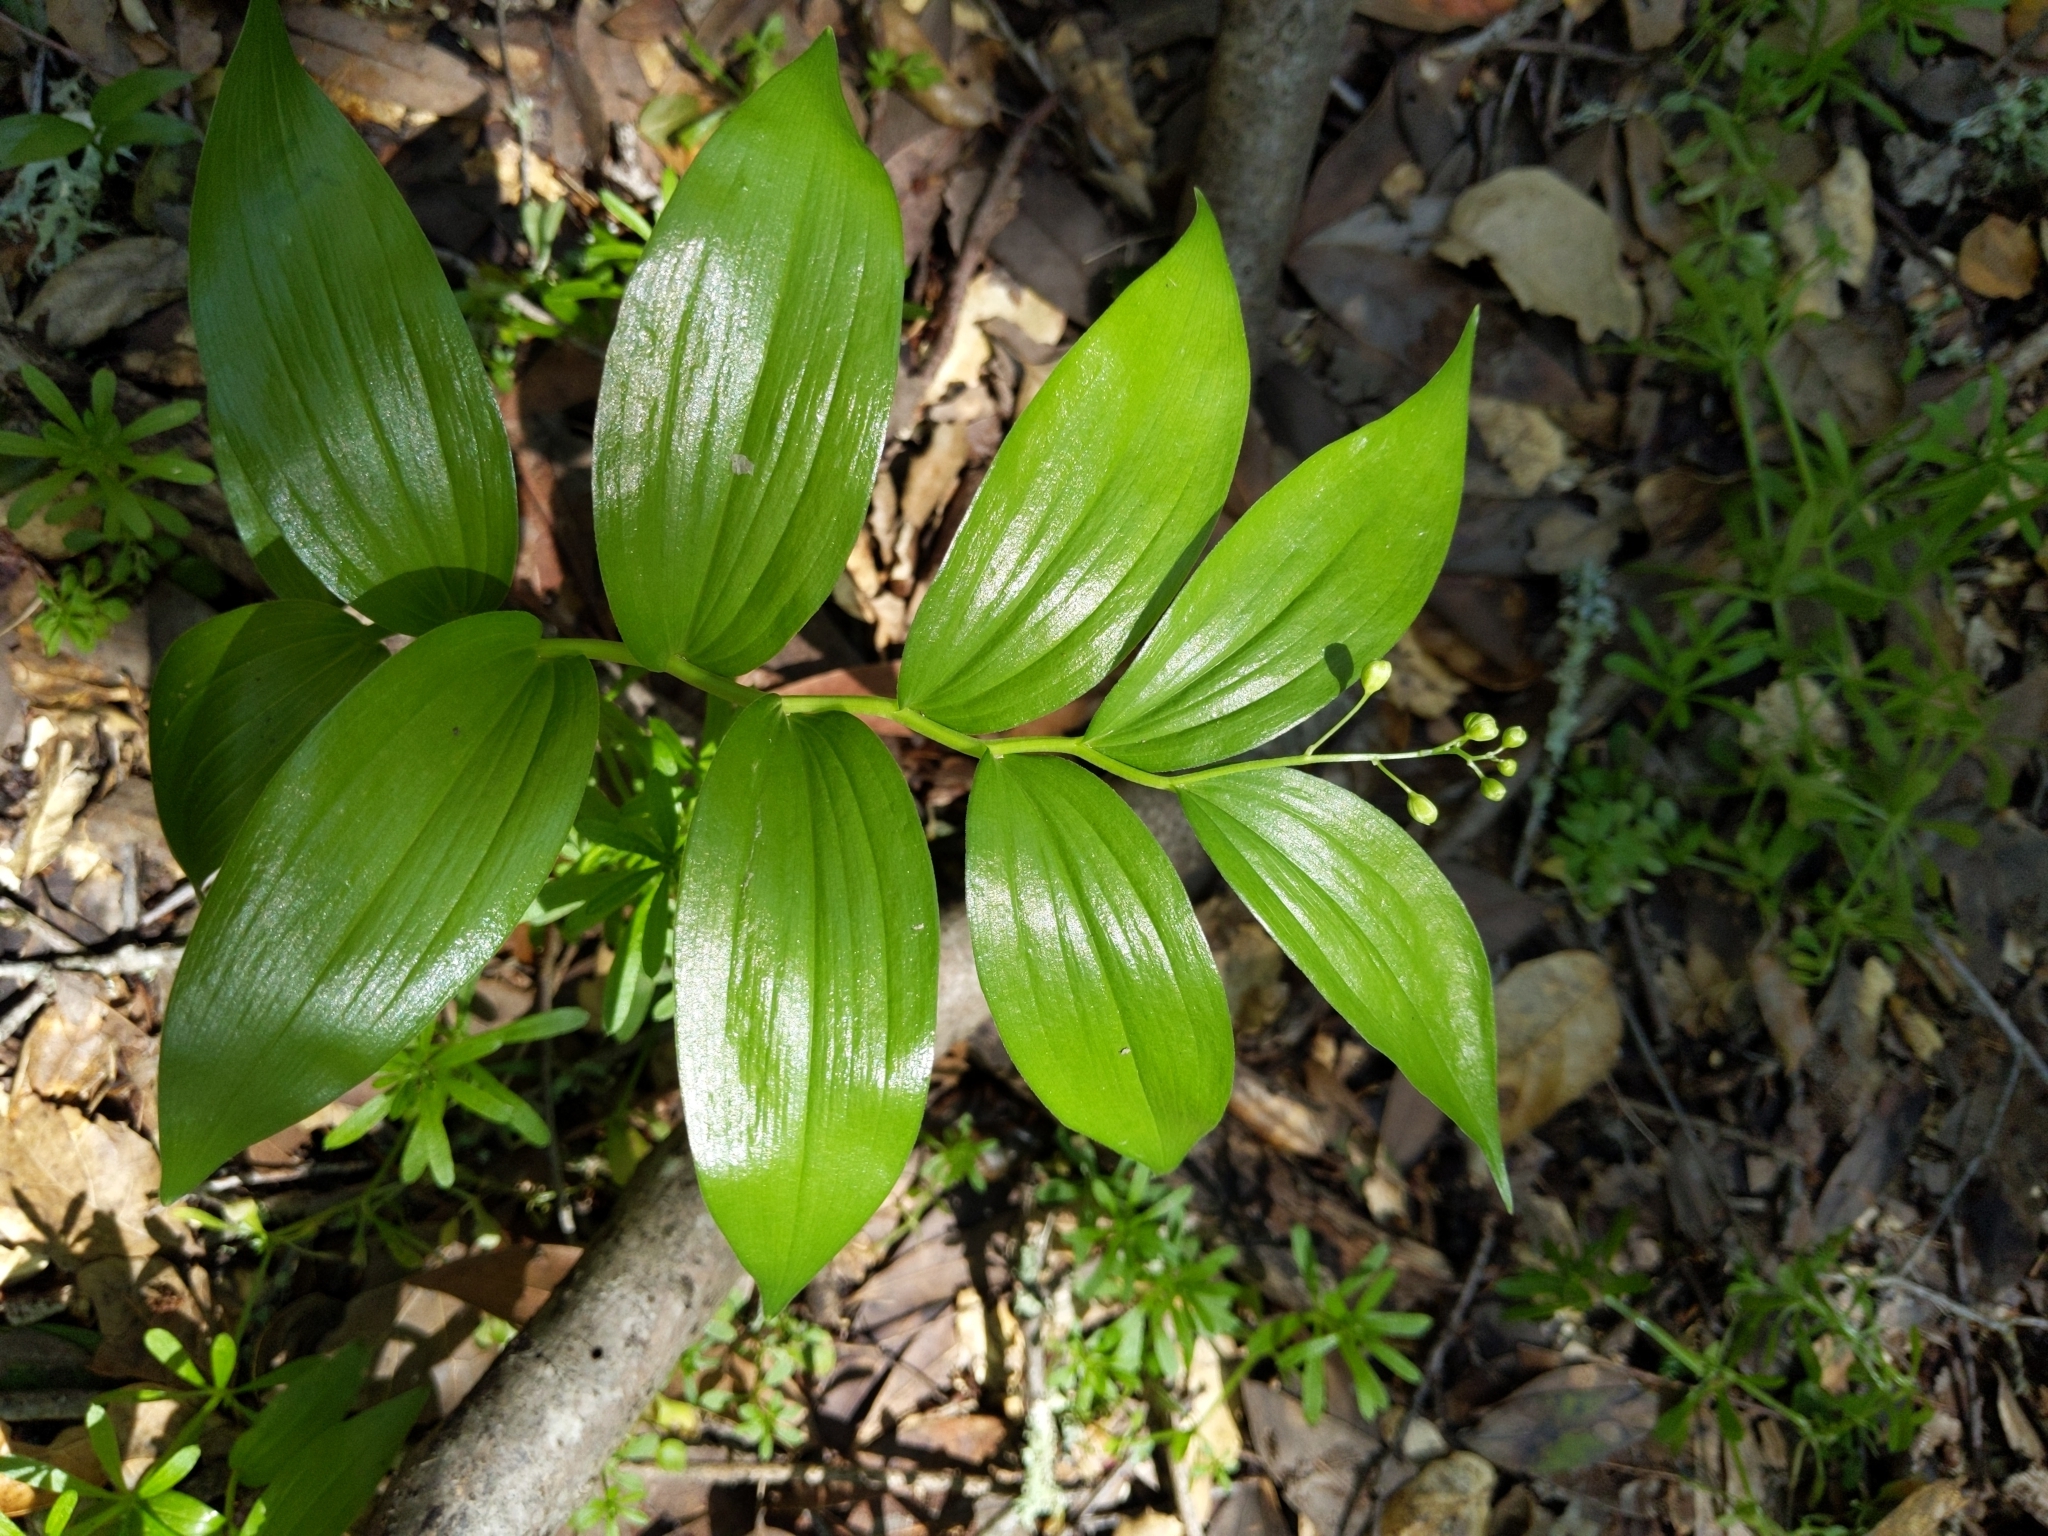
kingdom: Plantae
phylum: Tracheophyta
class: Liliopsida
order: Asparagales
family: Asparagaceae
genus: Maianthemum
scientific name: Maianthemum stellatum
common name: Little false solomon's seal
